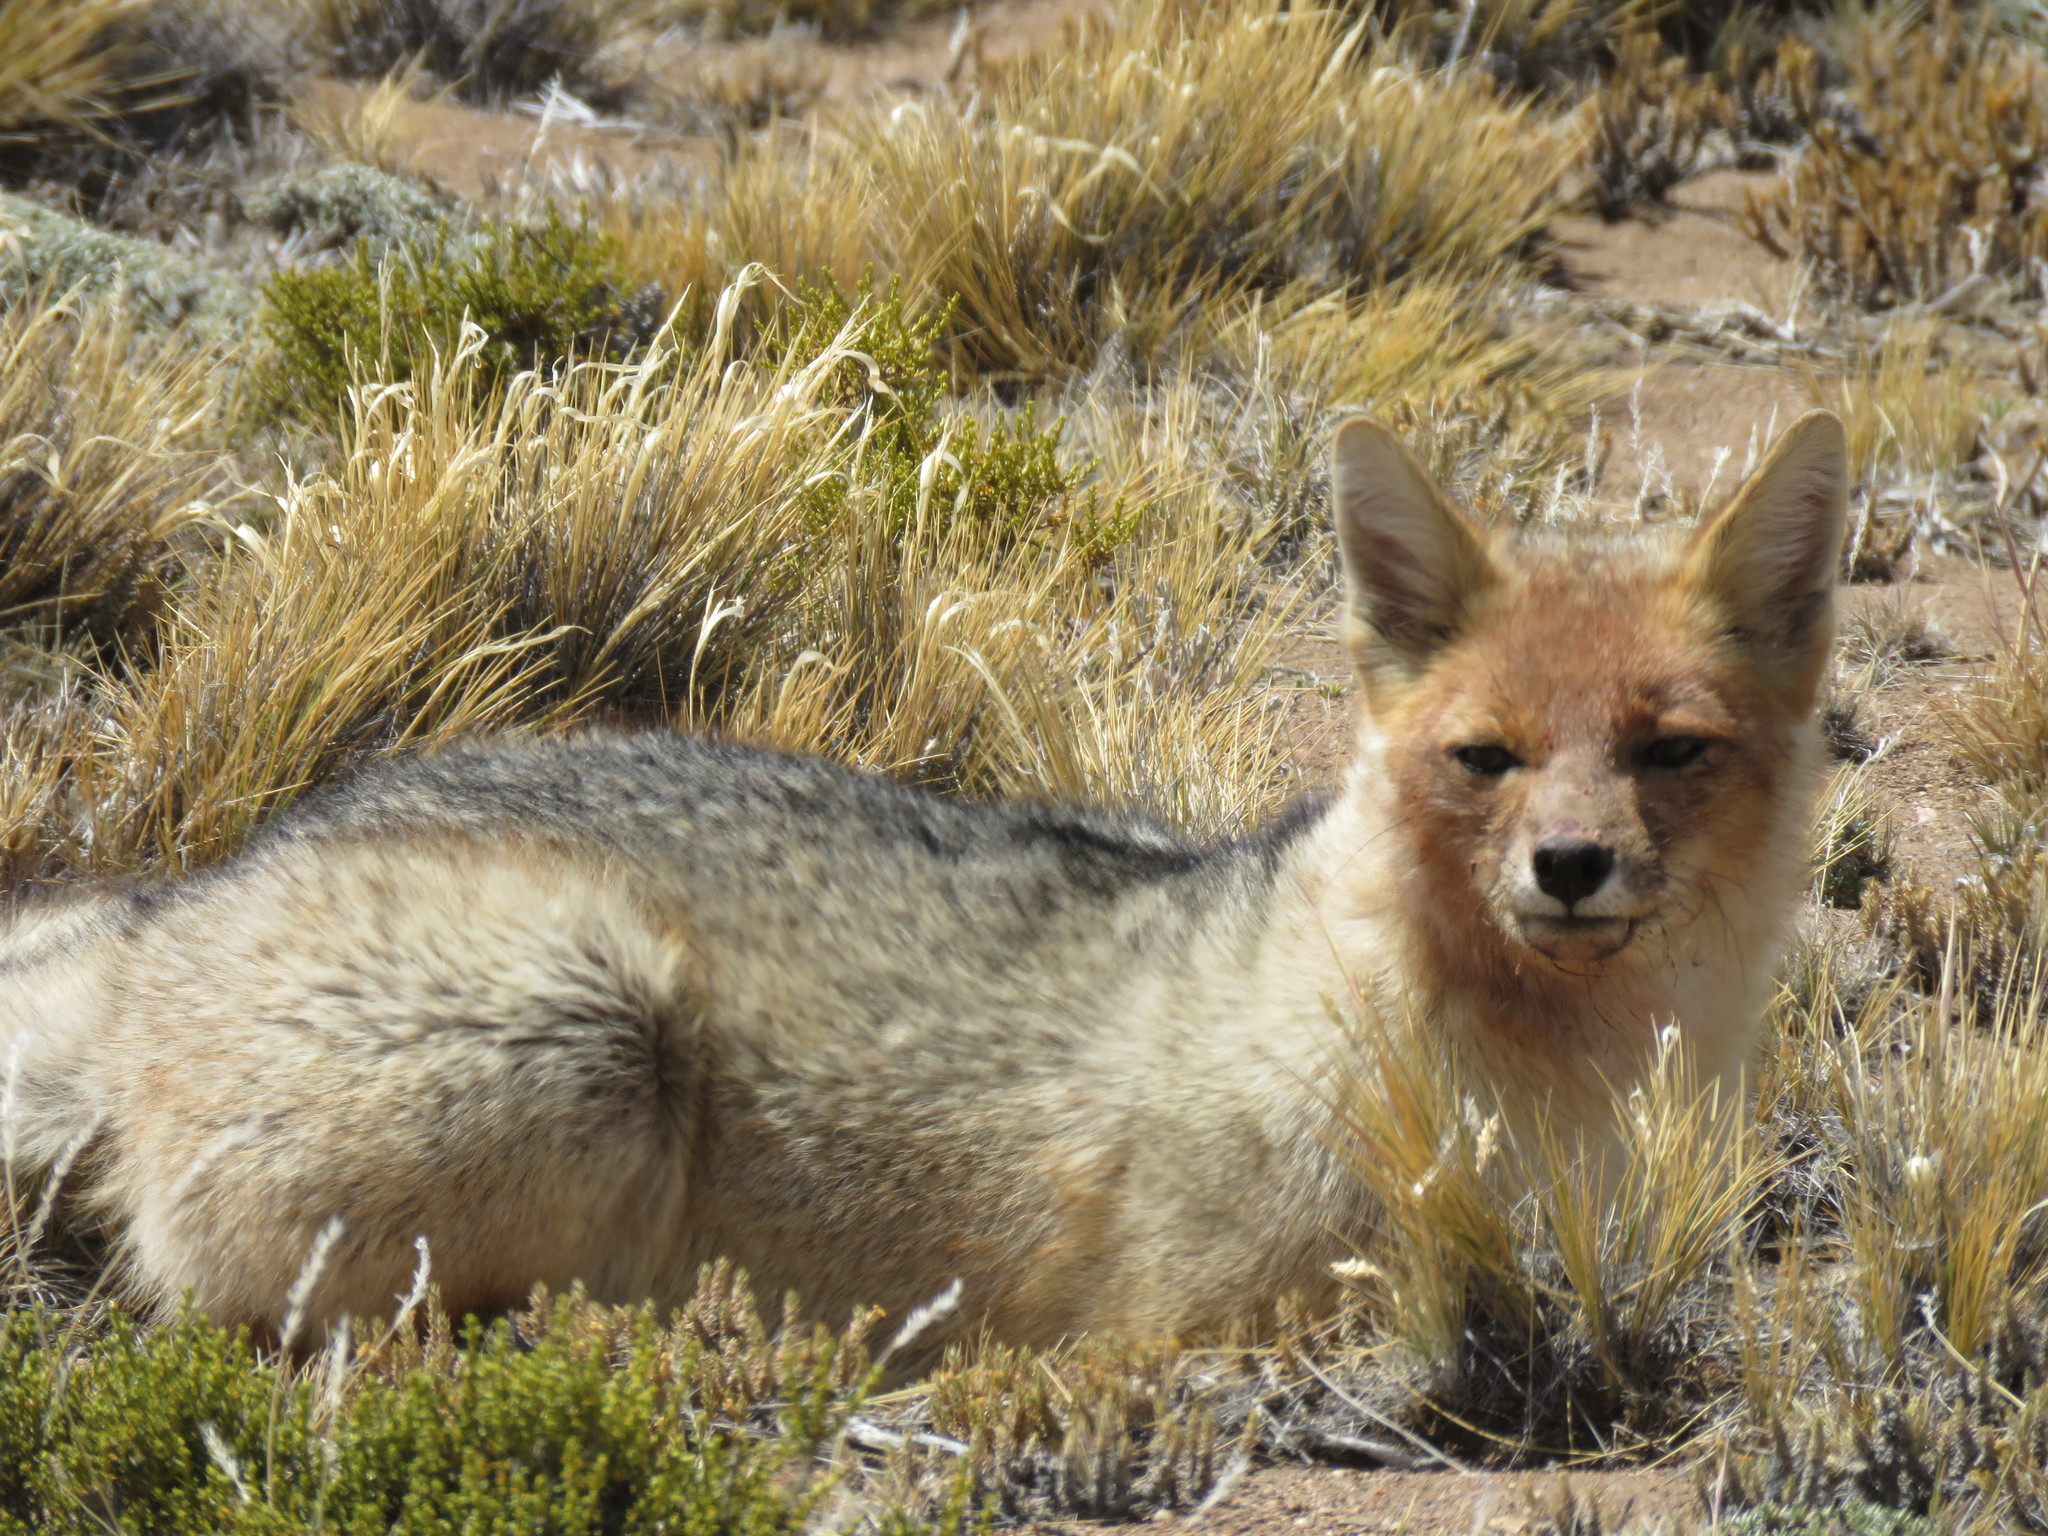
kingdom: Animalia
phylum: Chordata
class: Mammalia
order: Carnivora
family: Canidae
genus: Lycalopex
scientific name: Lycalopex culpaeus
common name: Culpeo
